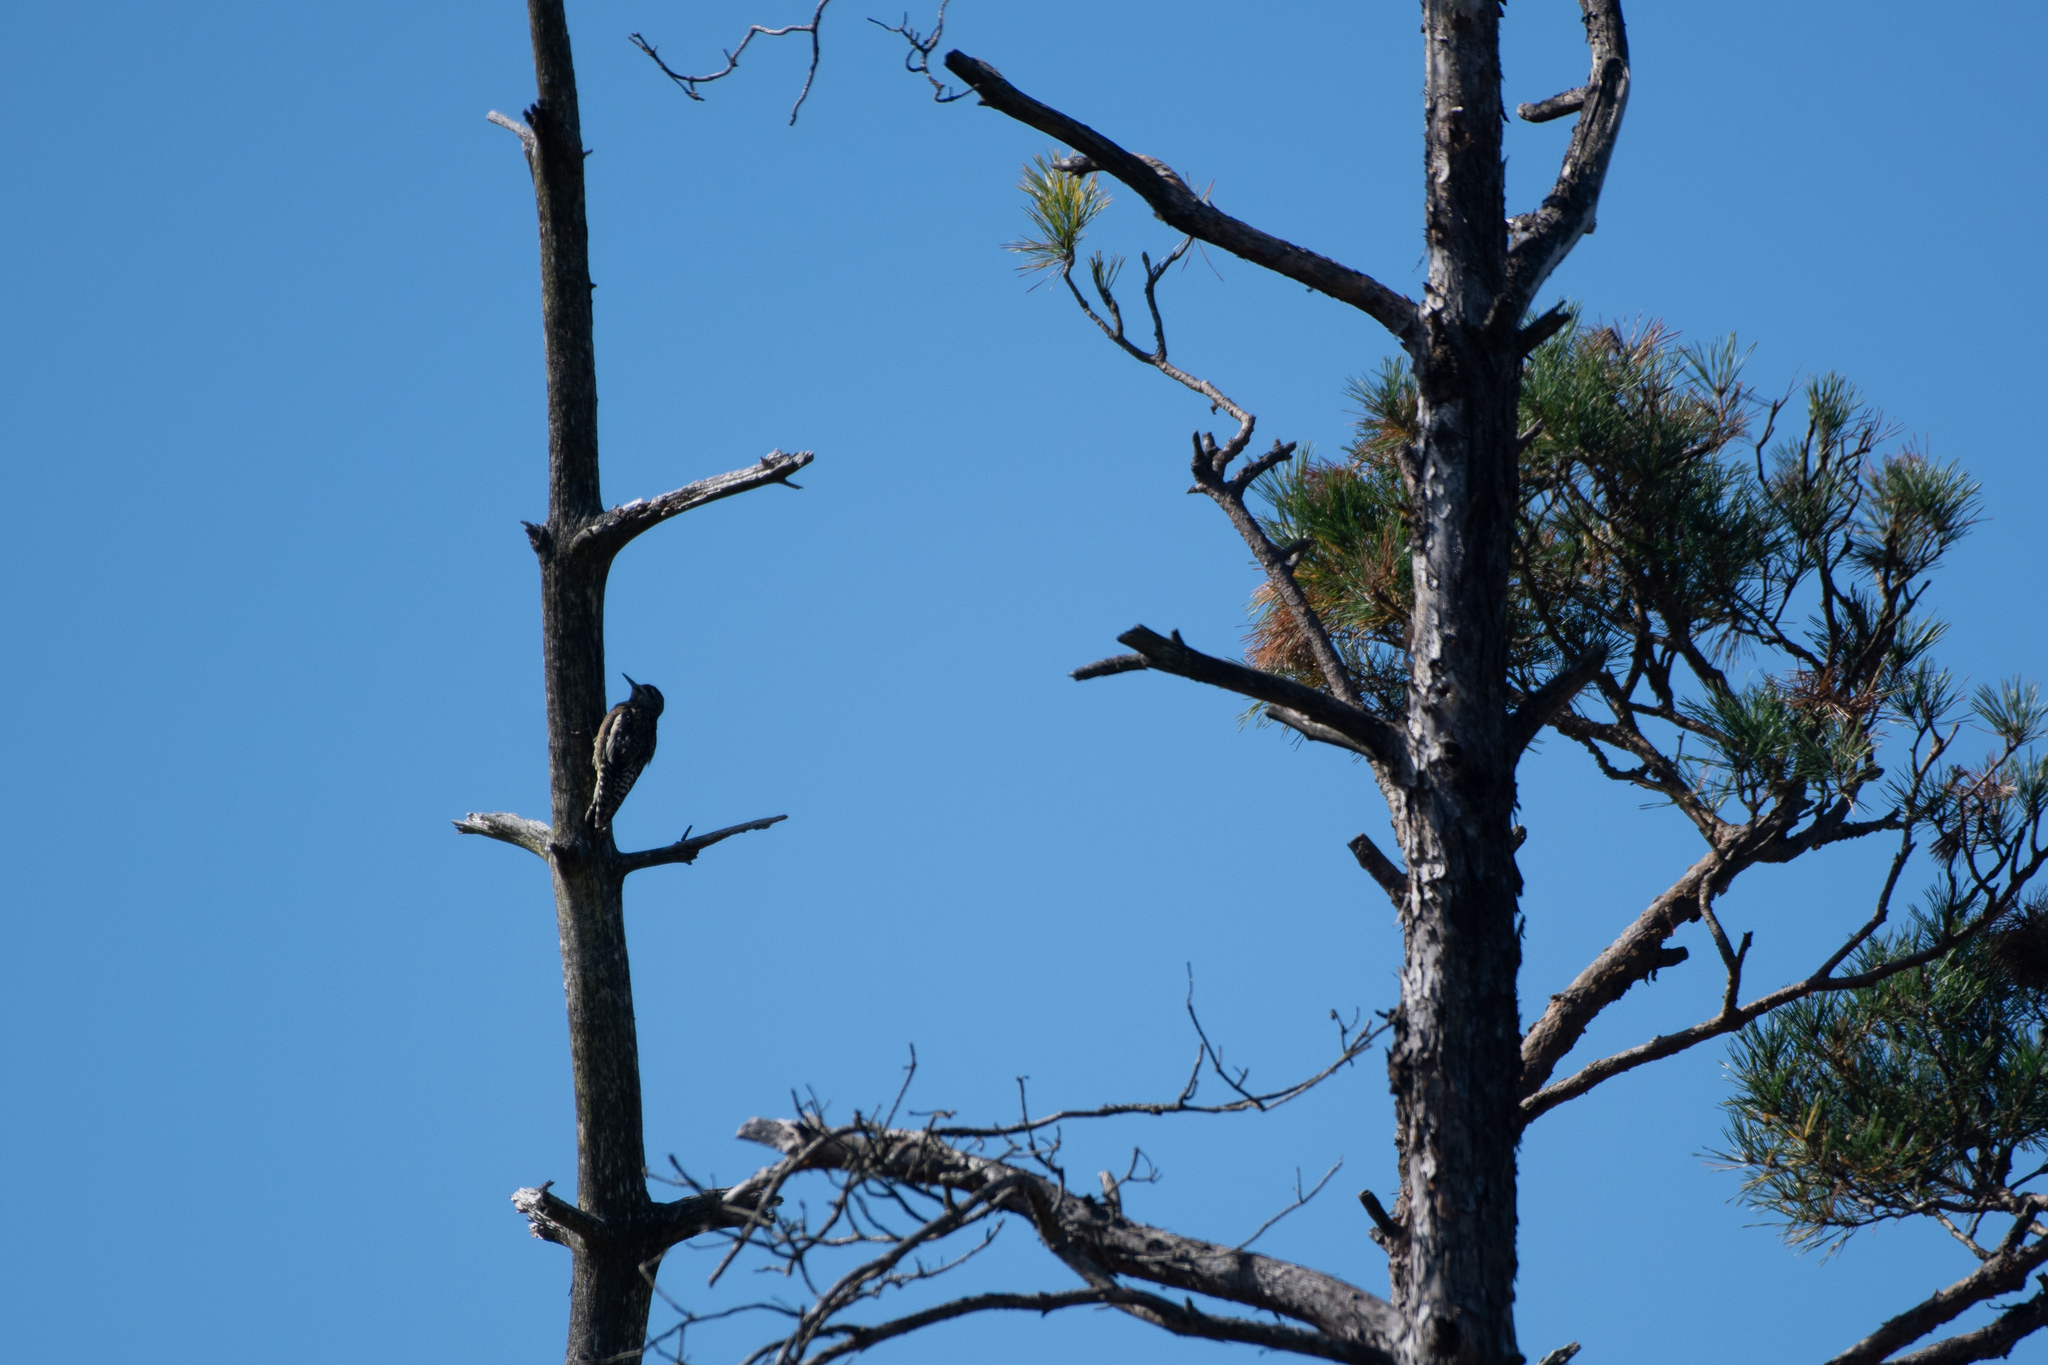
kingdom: Animalia
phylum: Chordata
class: Aves
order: Piciformes
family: Picidae
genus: Sphyrapicus
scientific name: Sphyrapicus varius
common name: Yellow-bellied sapsucker
